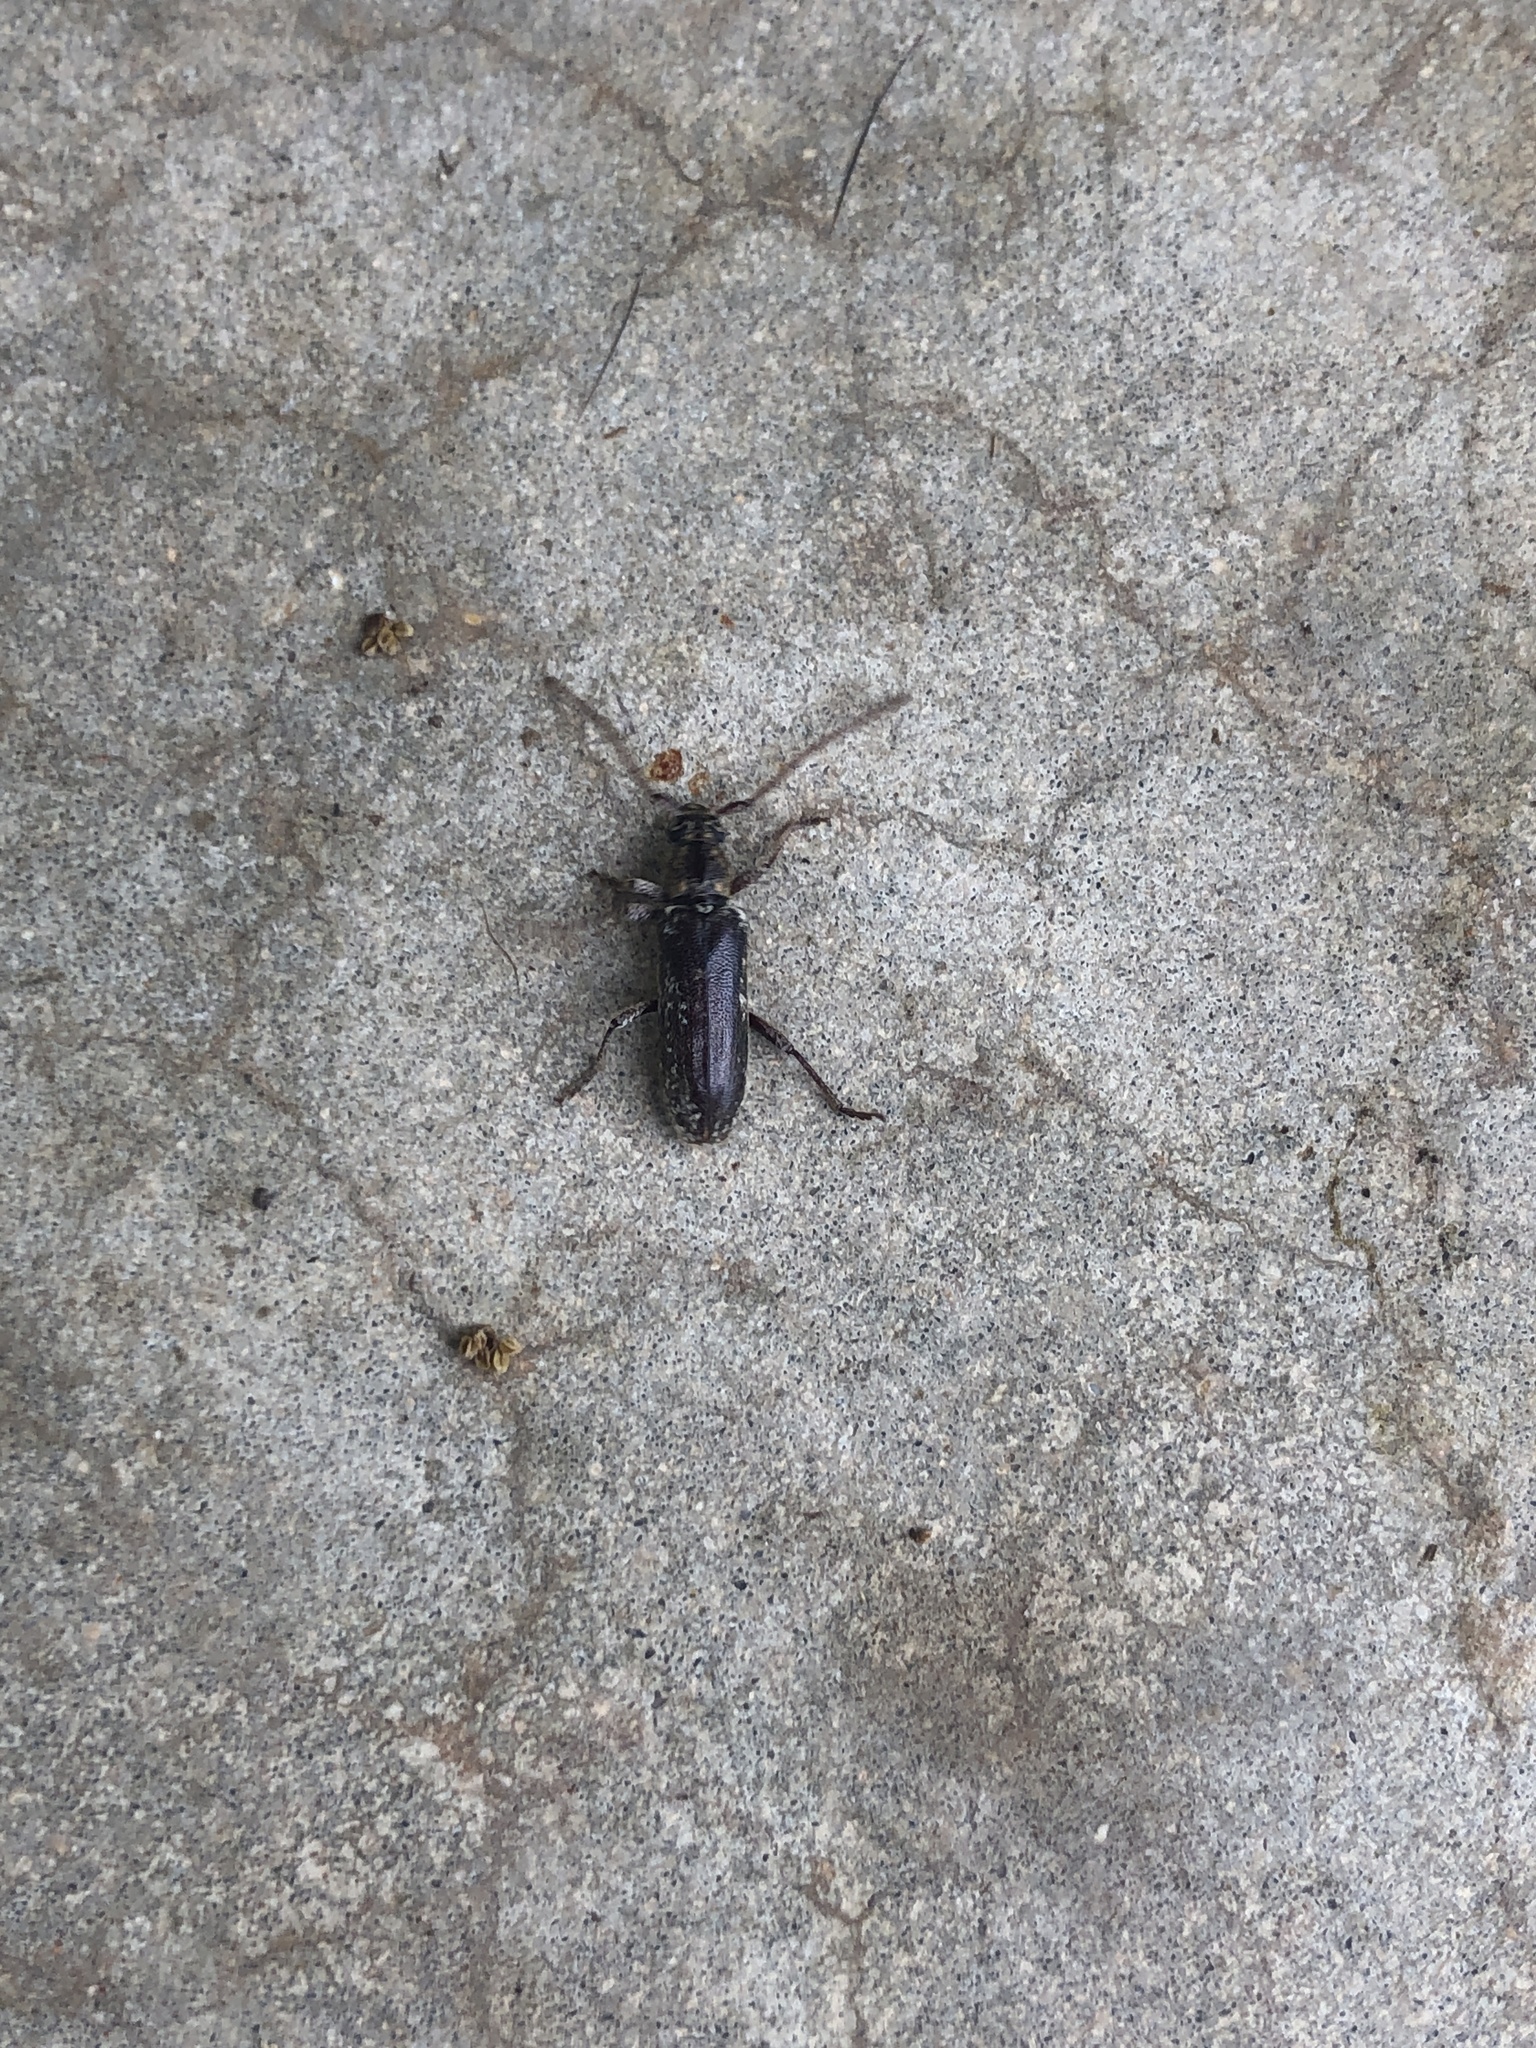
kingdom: Animalia
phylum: Arthropoda
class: Insecta
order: Coleoptera
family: Cerambycidae
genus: Anelaphus
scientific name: Anelaphus debilis
